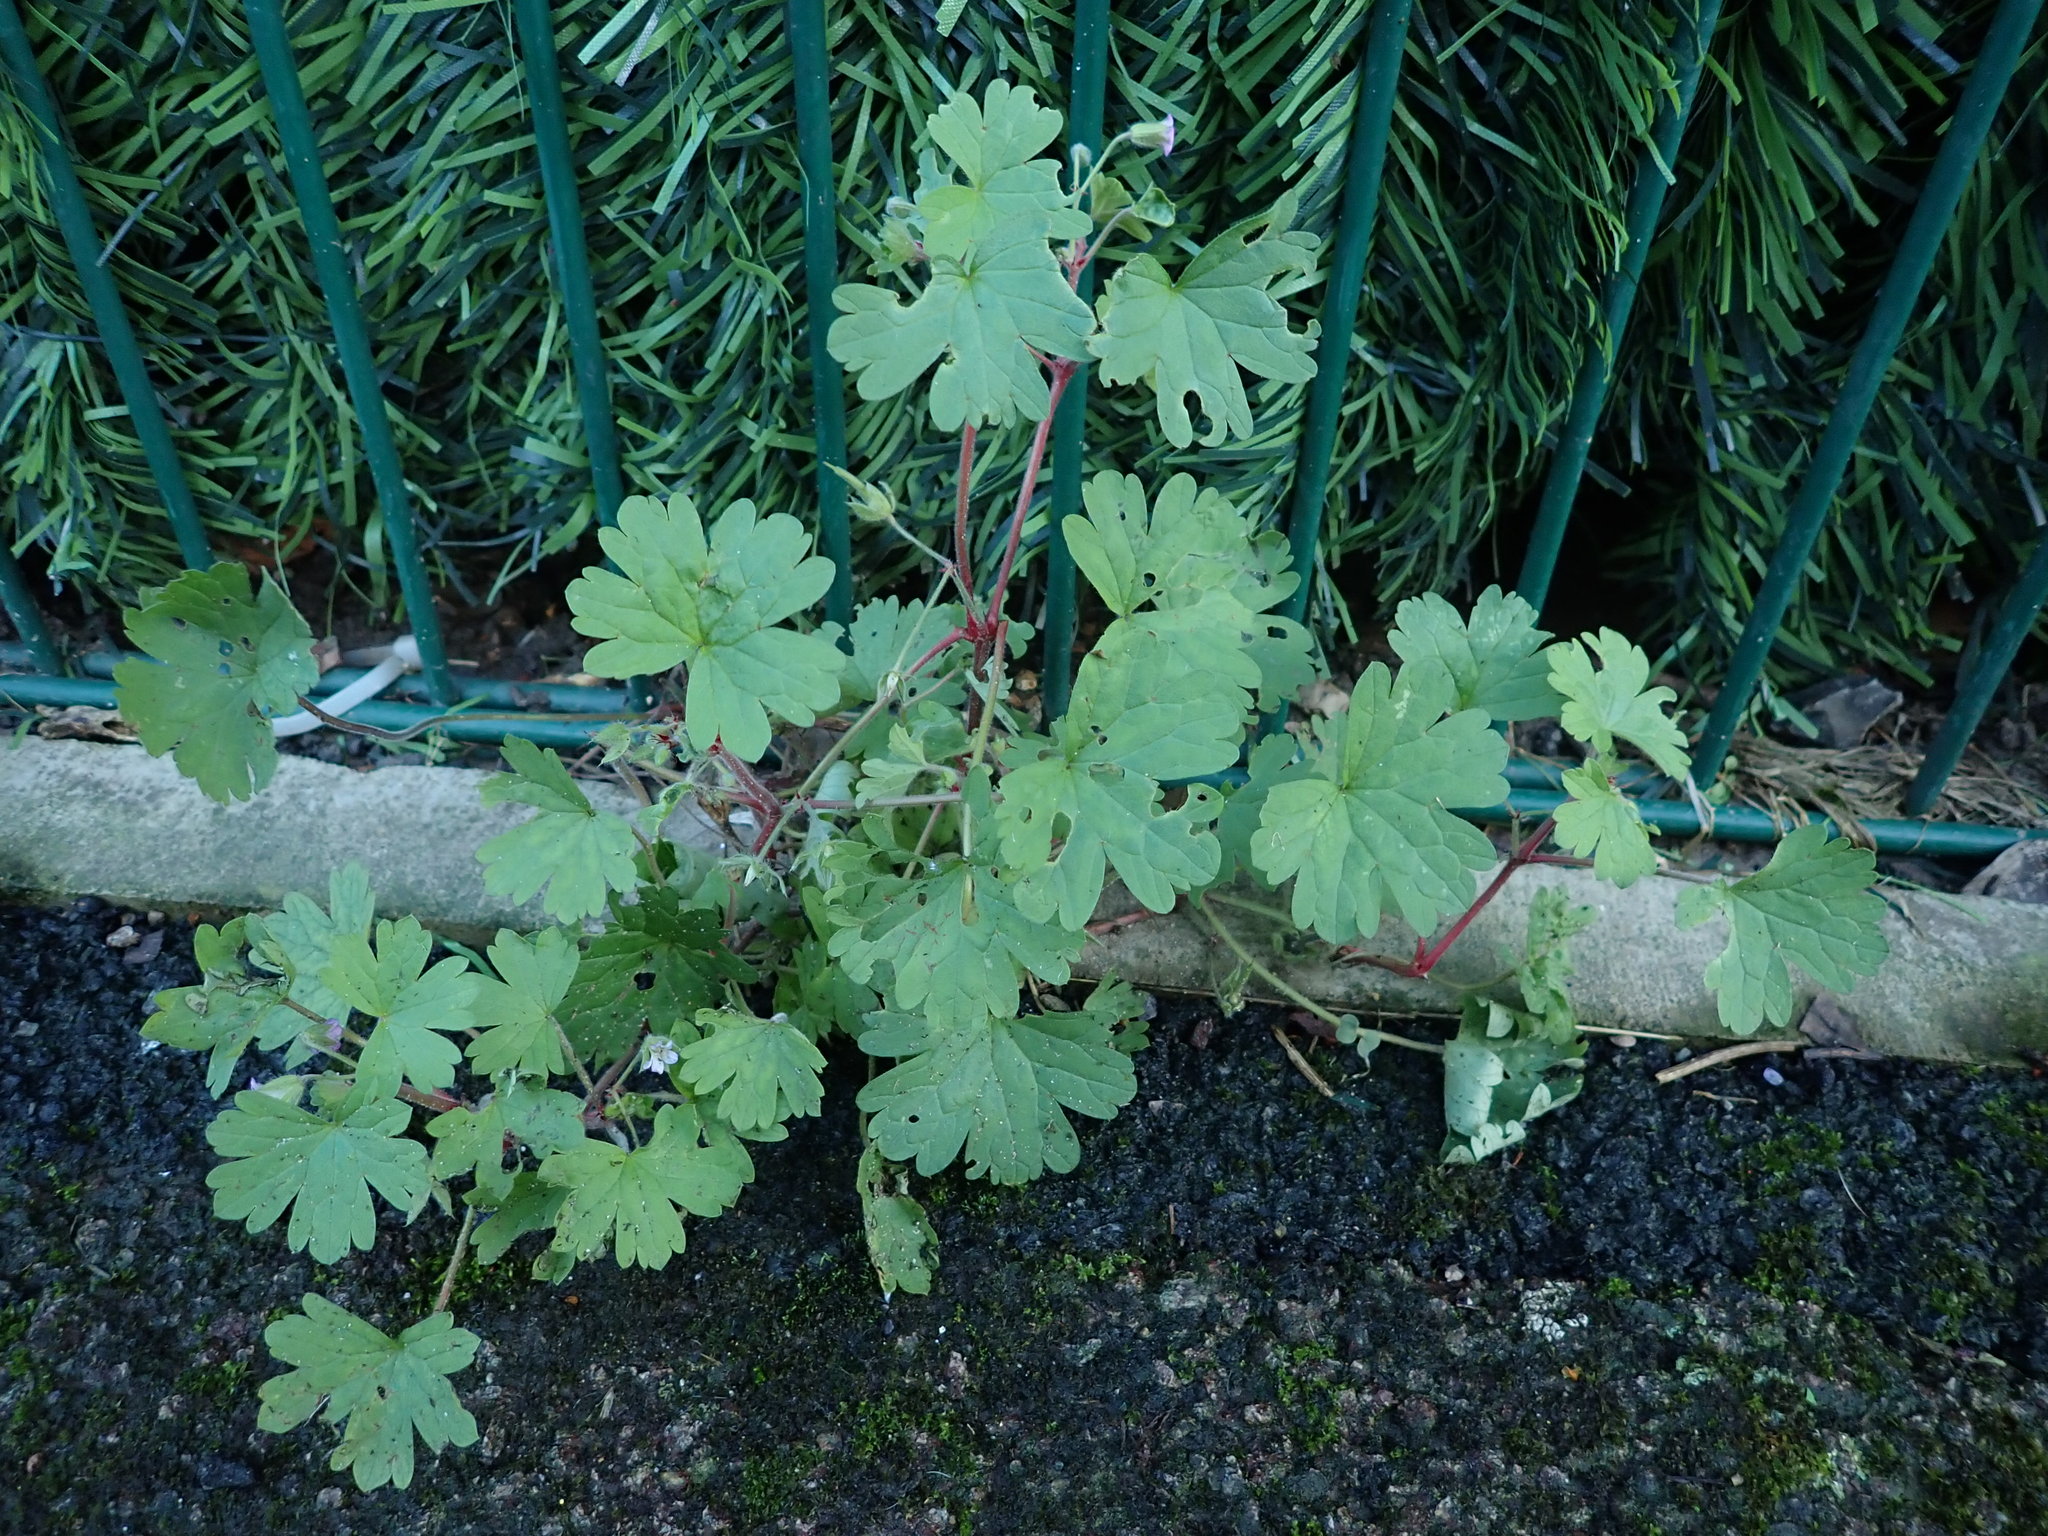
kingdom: Plantae
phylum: Tracheophyta
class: Magnoliopsida
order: Geraniales
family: Geraniaceae
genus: Geranium
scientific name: Geranium rotundifolium
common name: Round-leaved crane's-bill
